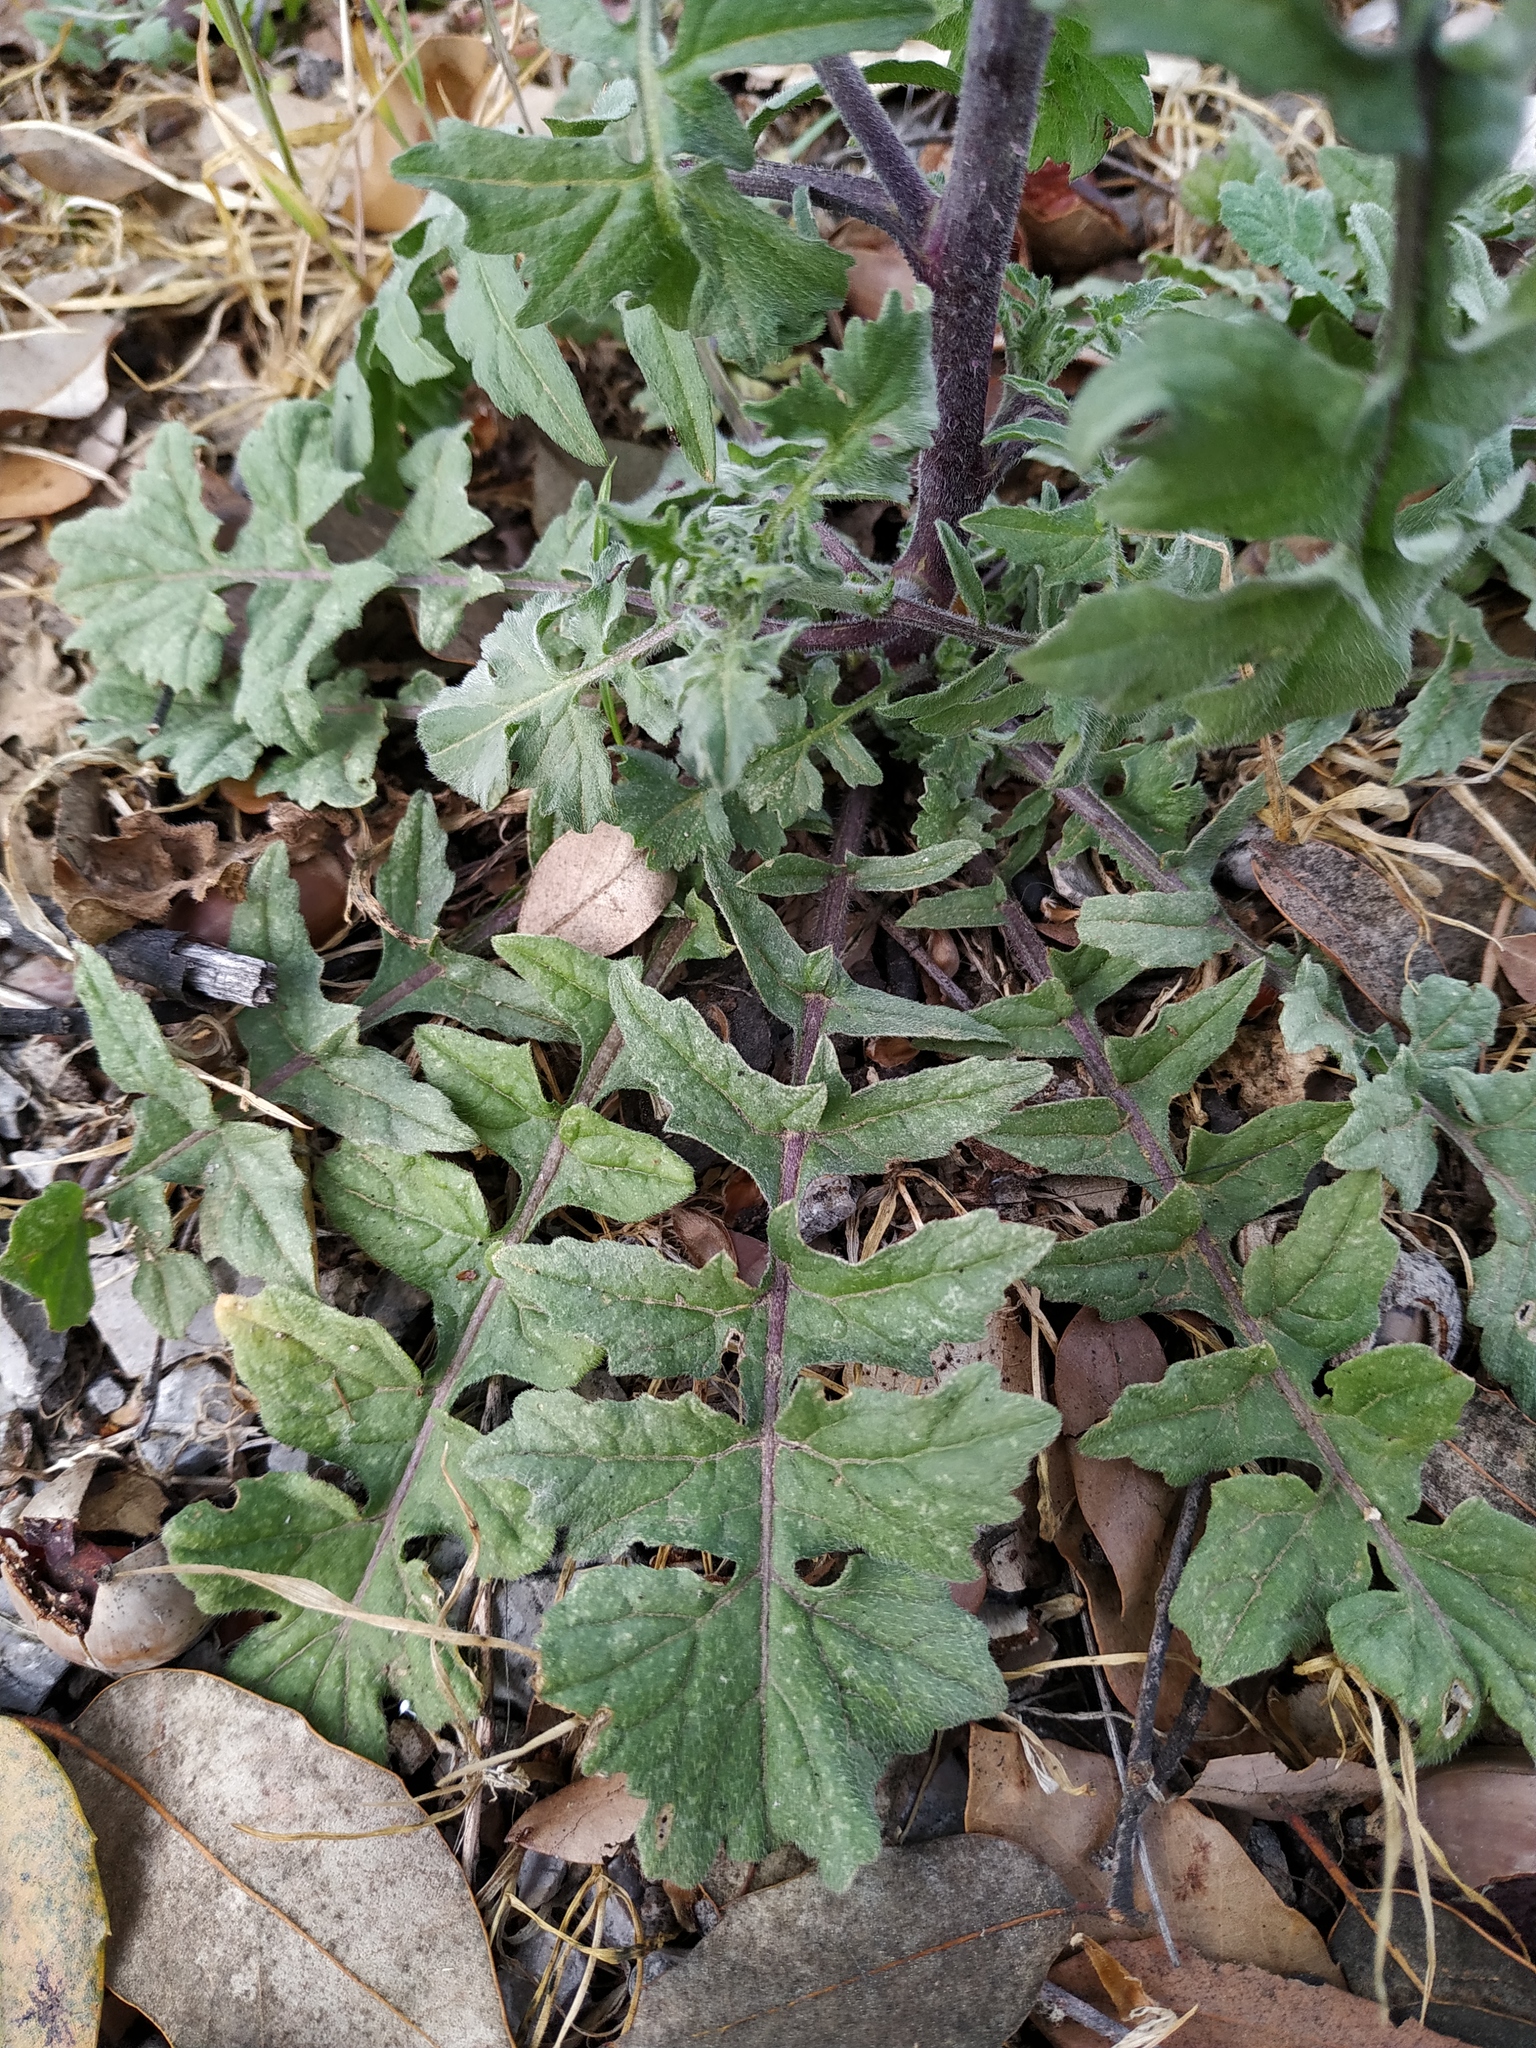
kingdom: Plantae
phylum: Tracheophyta
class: Magnoliopsida
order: Brassicales
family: Brassicaceae
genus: Sisymbrium
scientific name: Sisymbrium officinale
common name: Hedge mustard
